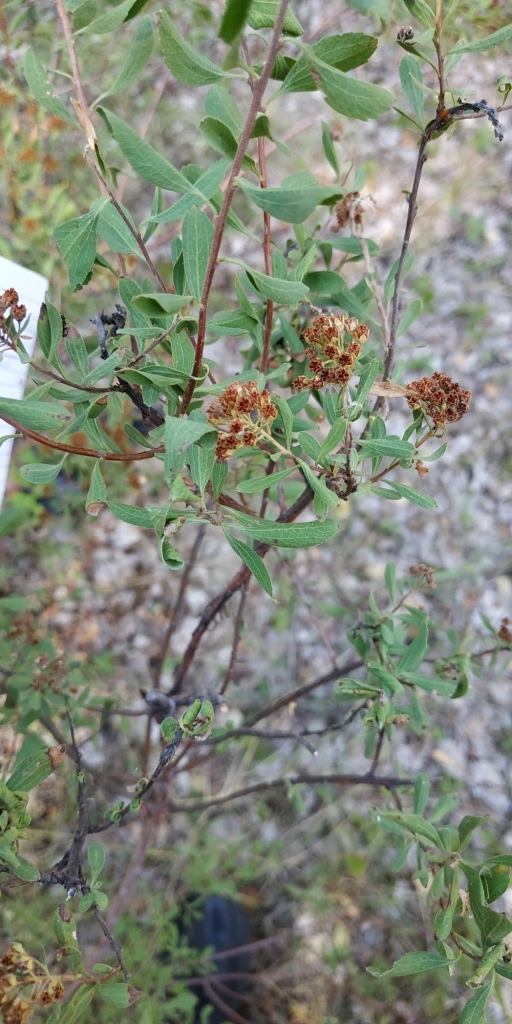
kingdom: Plantae
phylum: Tracheophyta
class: Magnoliopsida
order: Rosales
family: Rosaceae
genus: Spiraea
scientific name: Spiraea crenata
